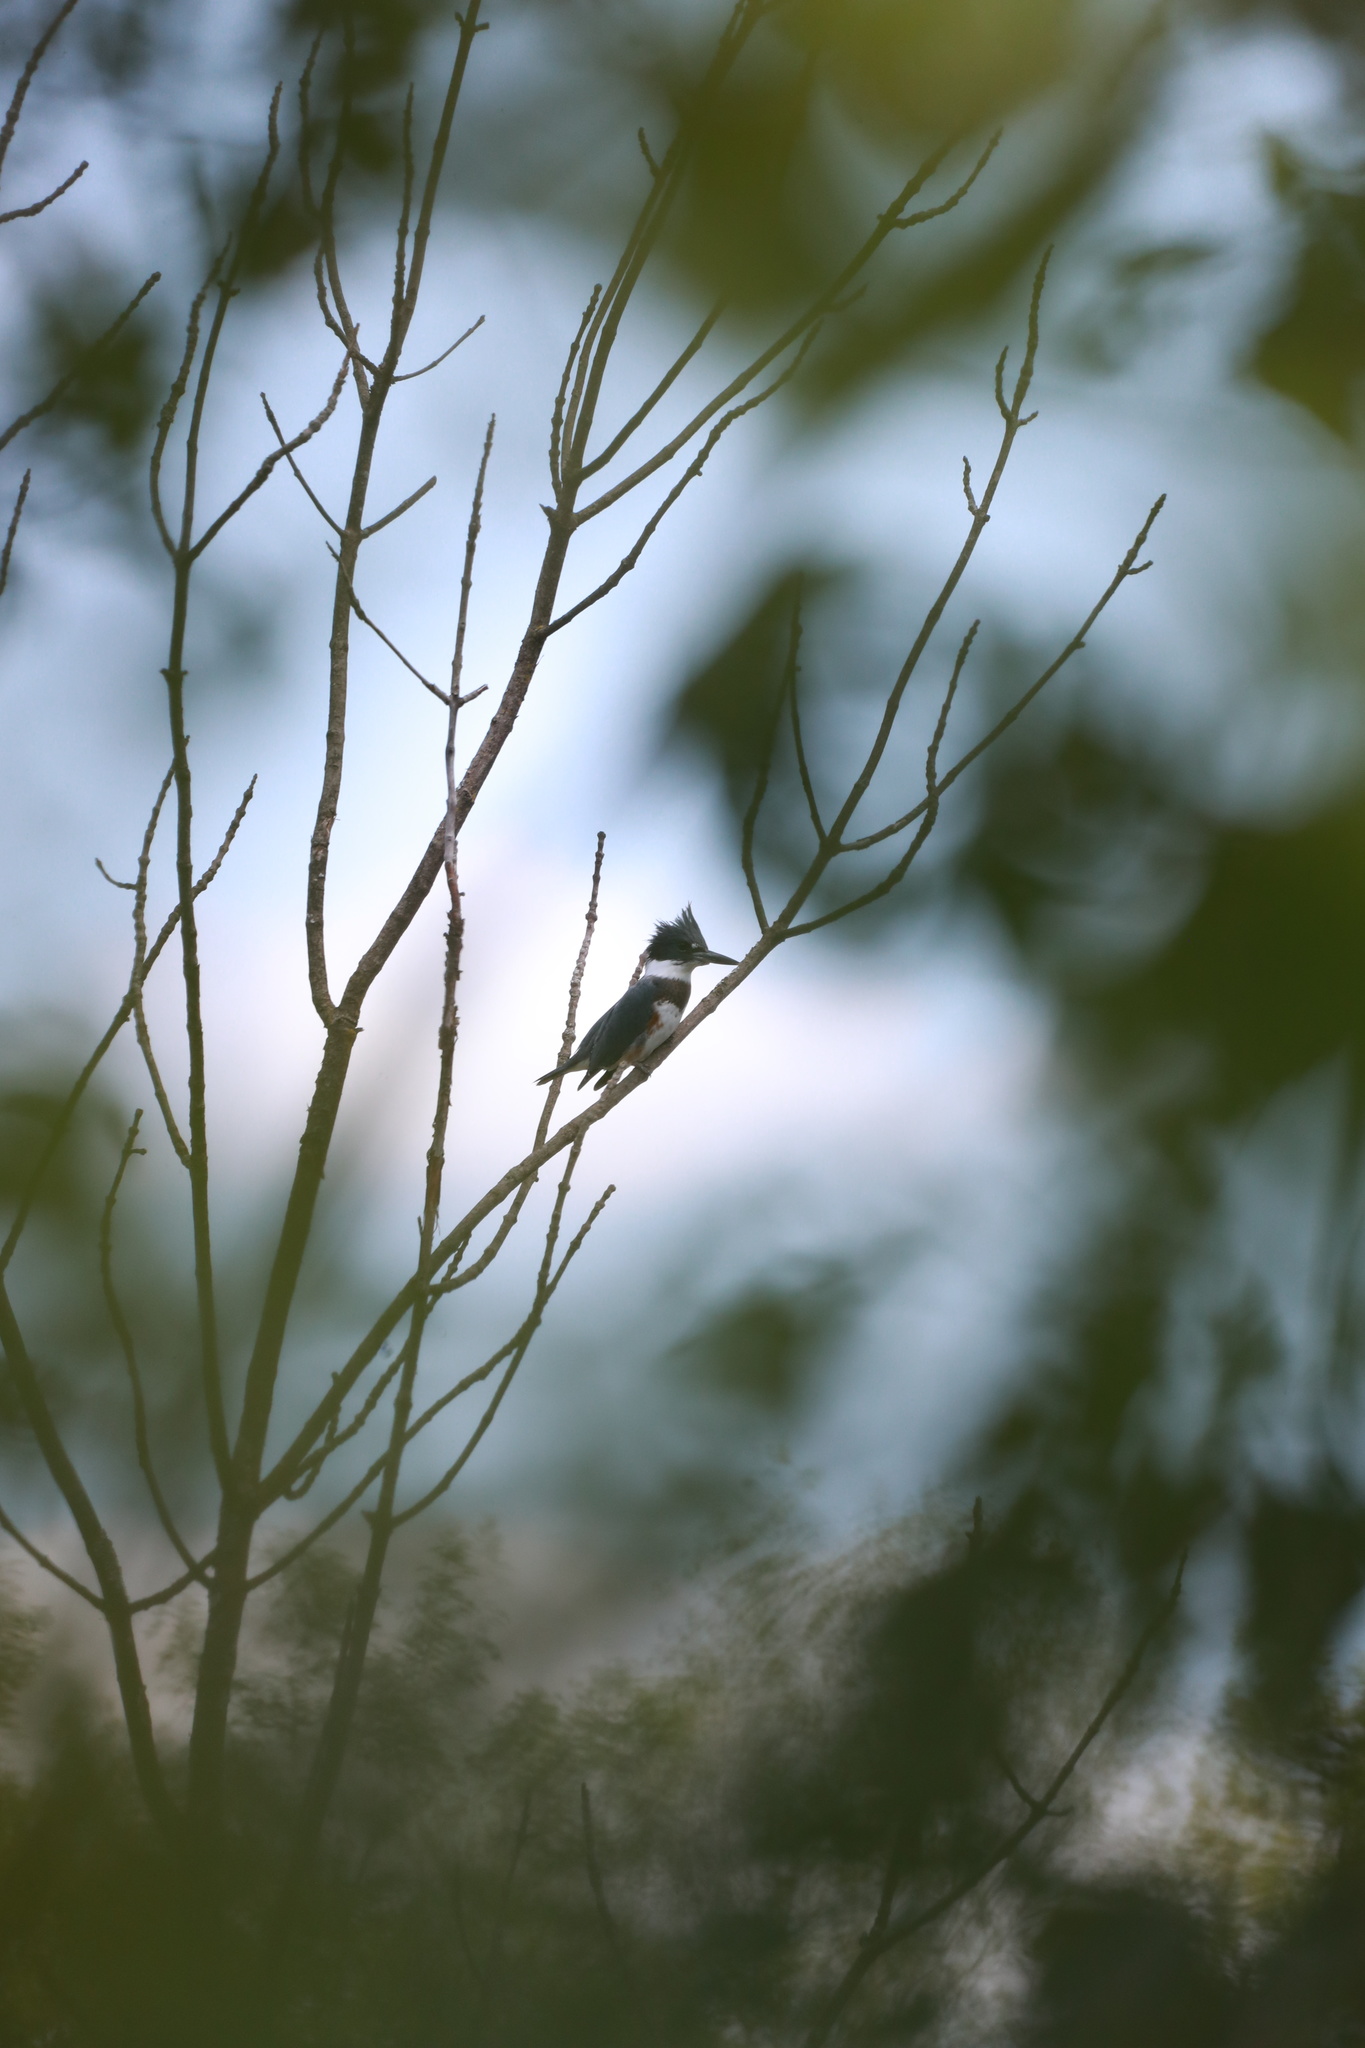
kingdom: Animalia
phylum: Chordata
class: Aves
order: Coraciiformes
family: Alcedinidae
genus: Megaceryle
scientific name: Megaceryle alcyon
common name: Belted kingfisher
